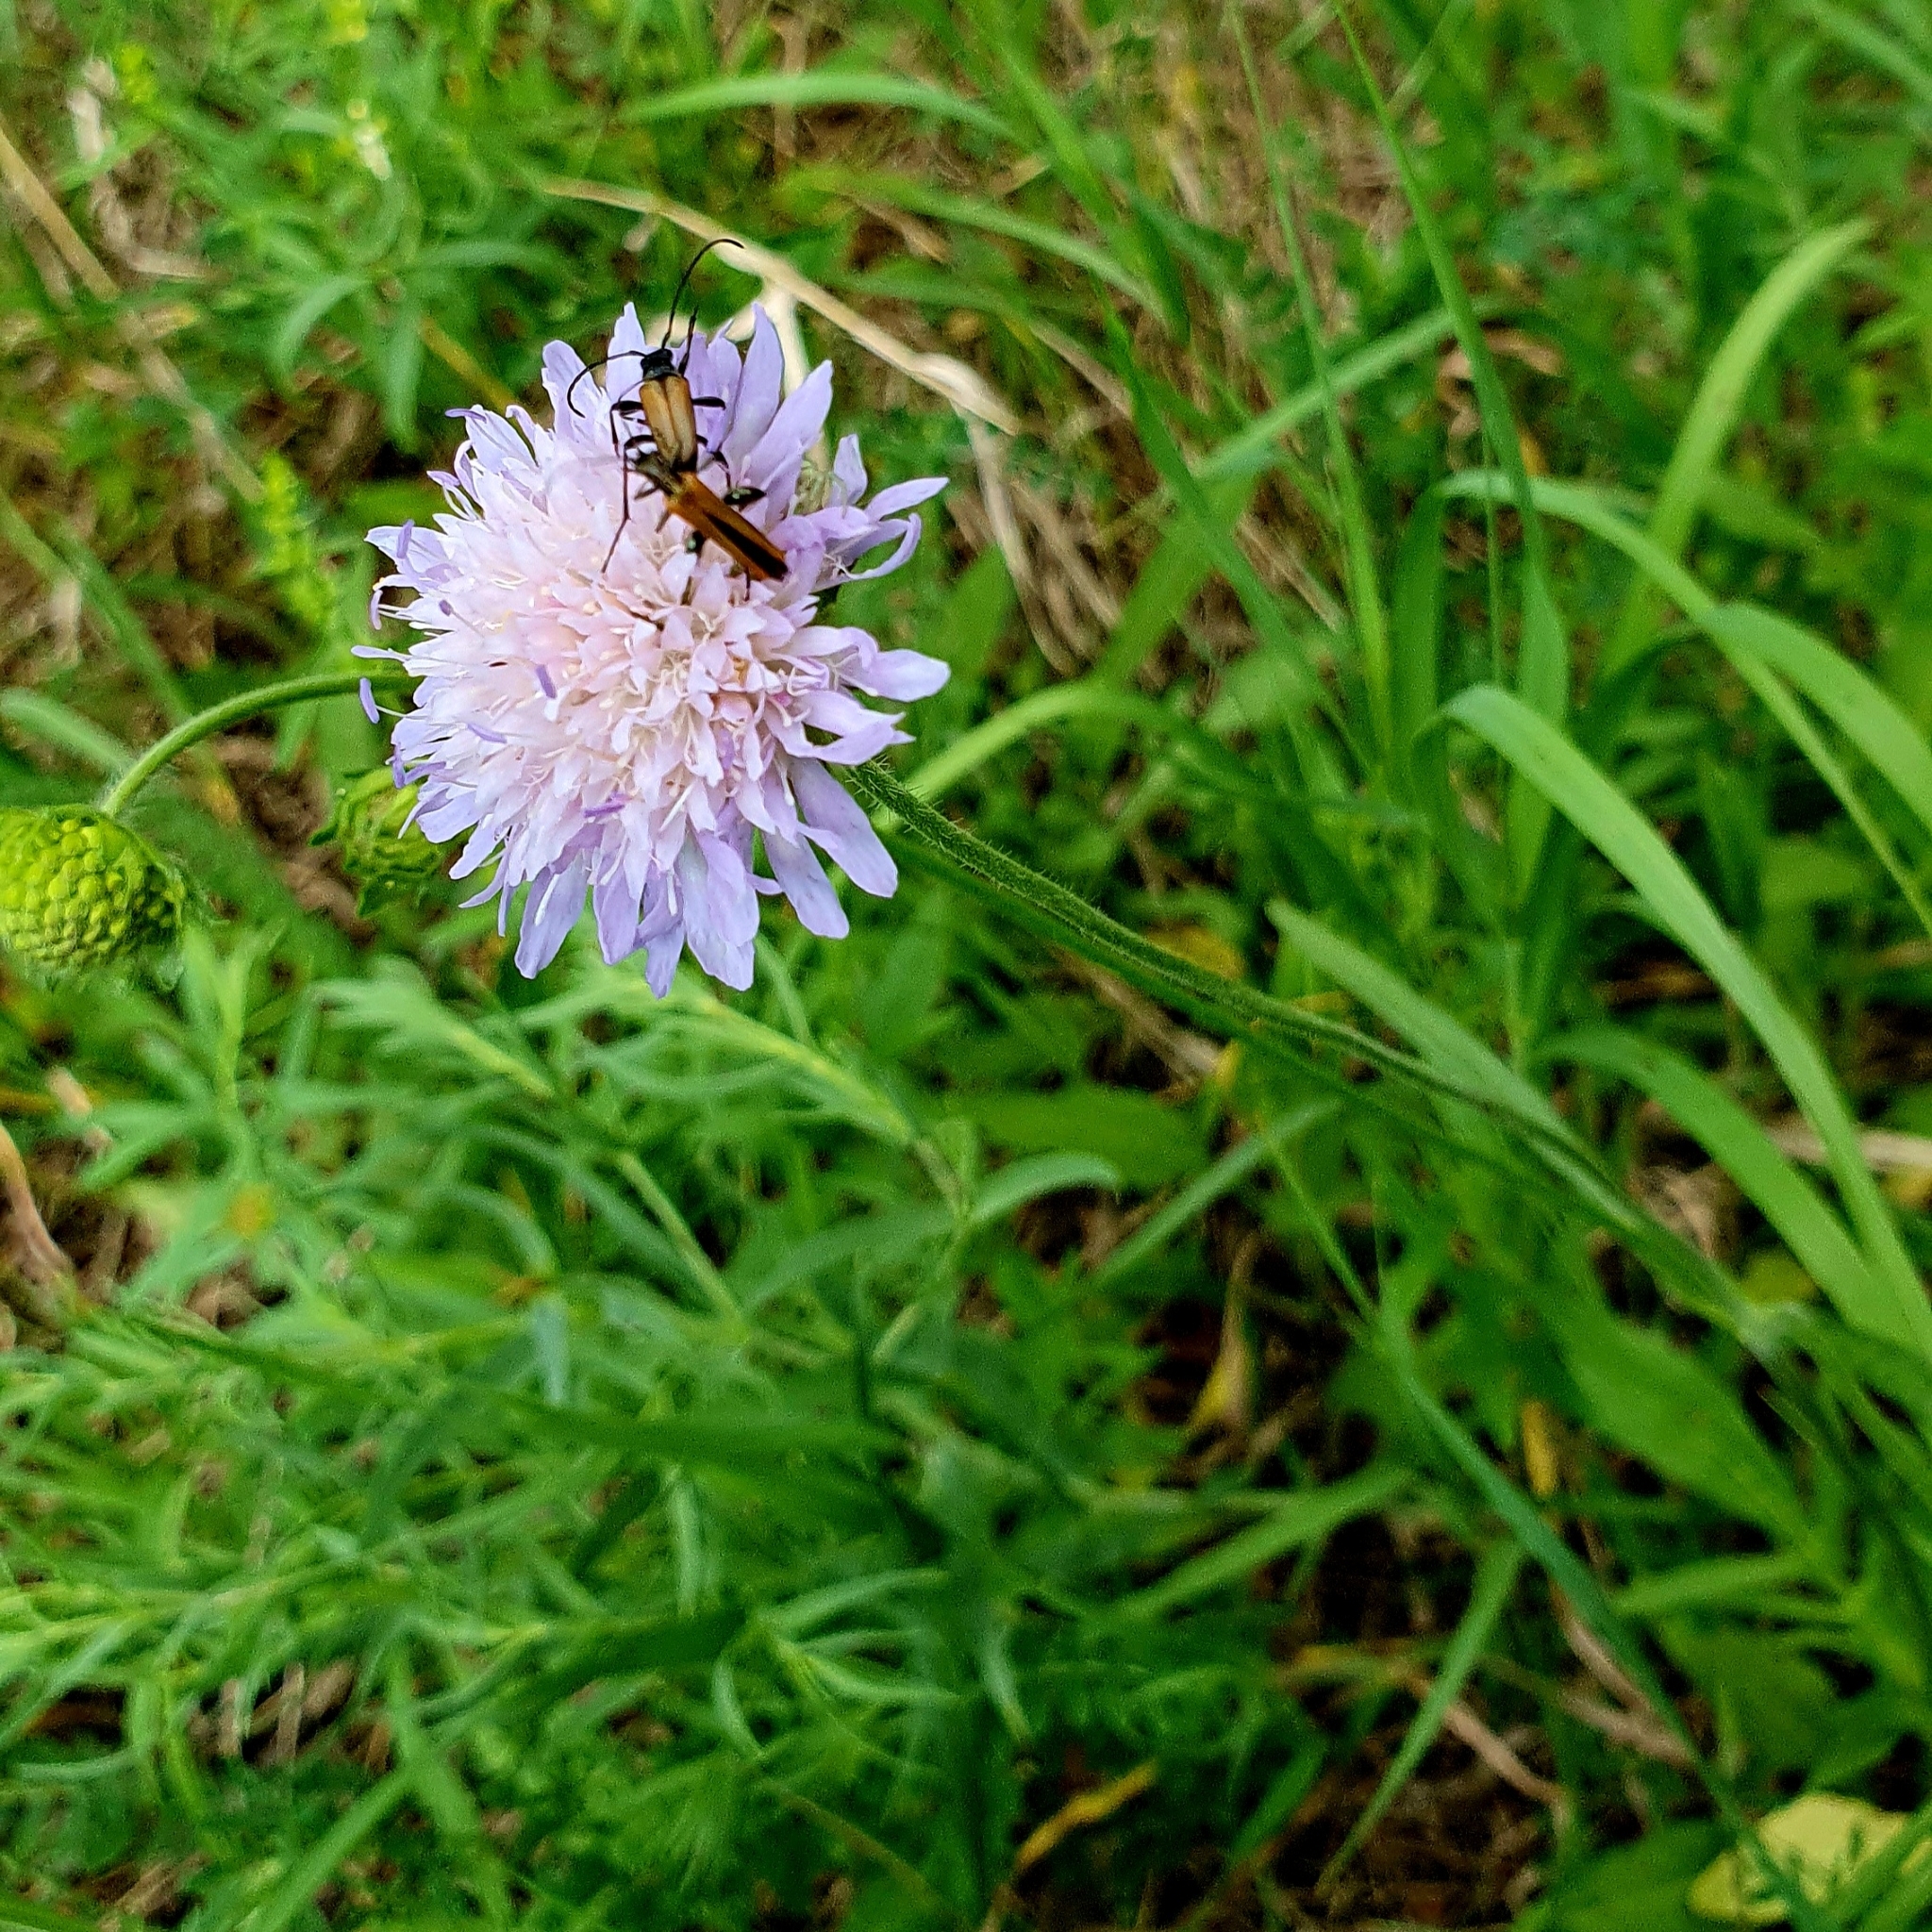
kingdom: Plantae
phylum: Tracheophyta
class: Magnoliopsida
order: Dipsacales
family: Caprifoliaceae
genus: Knautia
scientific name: Knautia arvensis
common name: Field scabiosa
